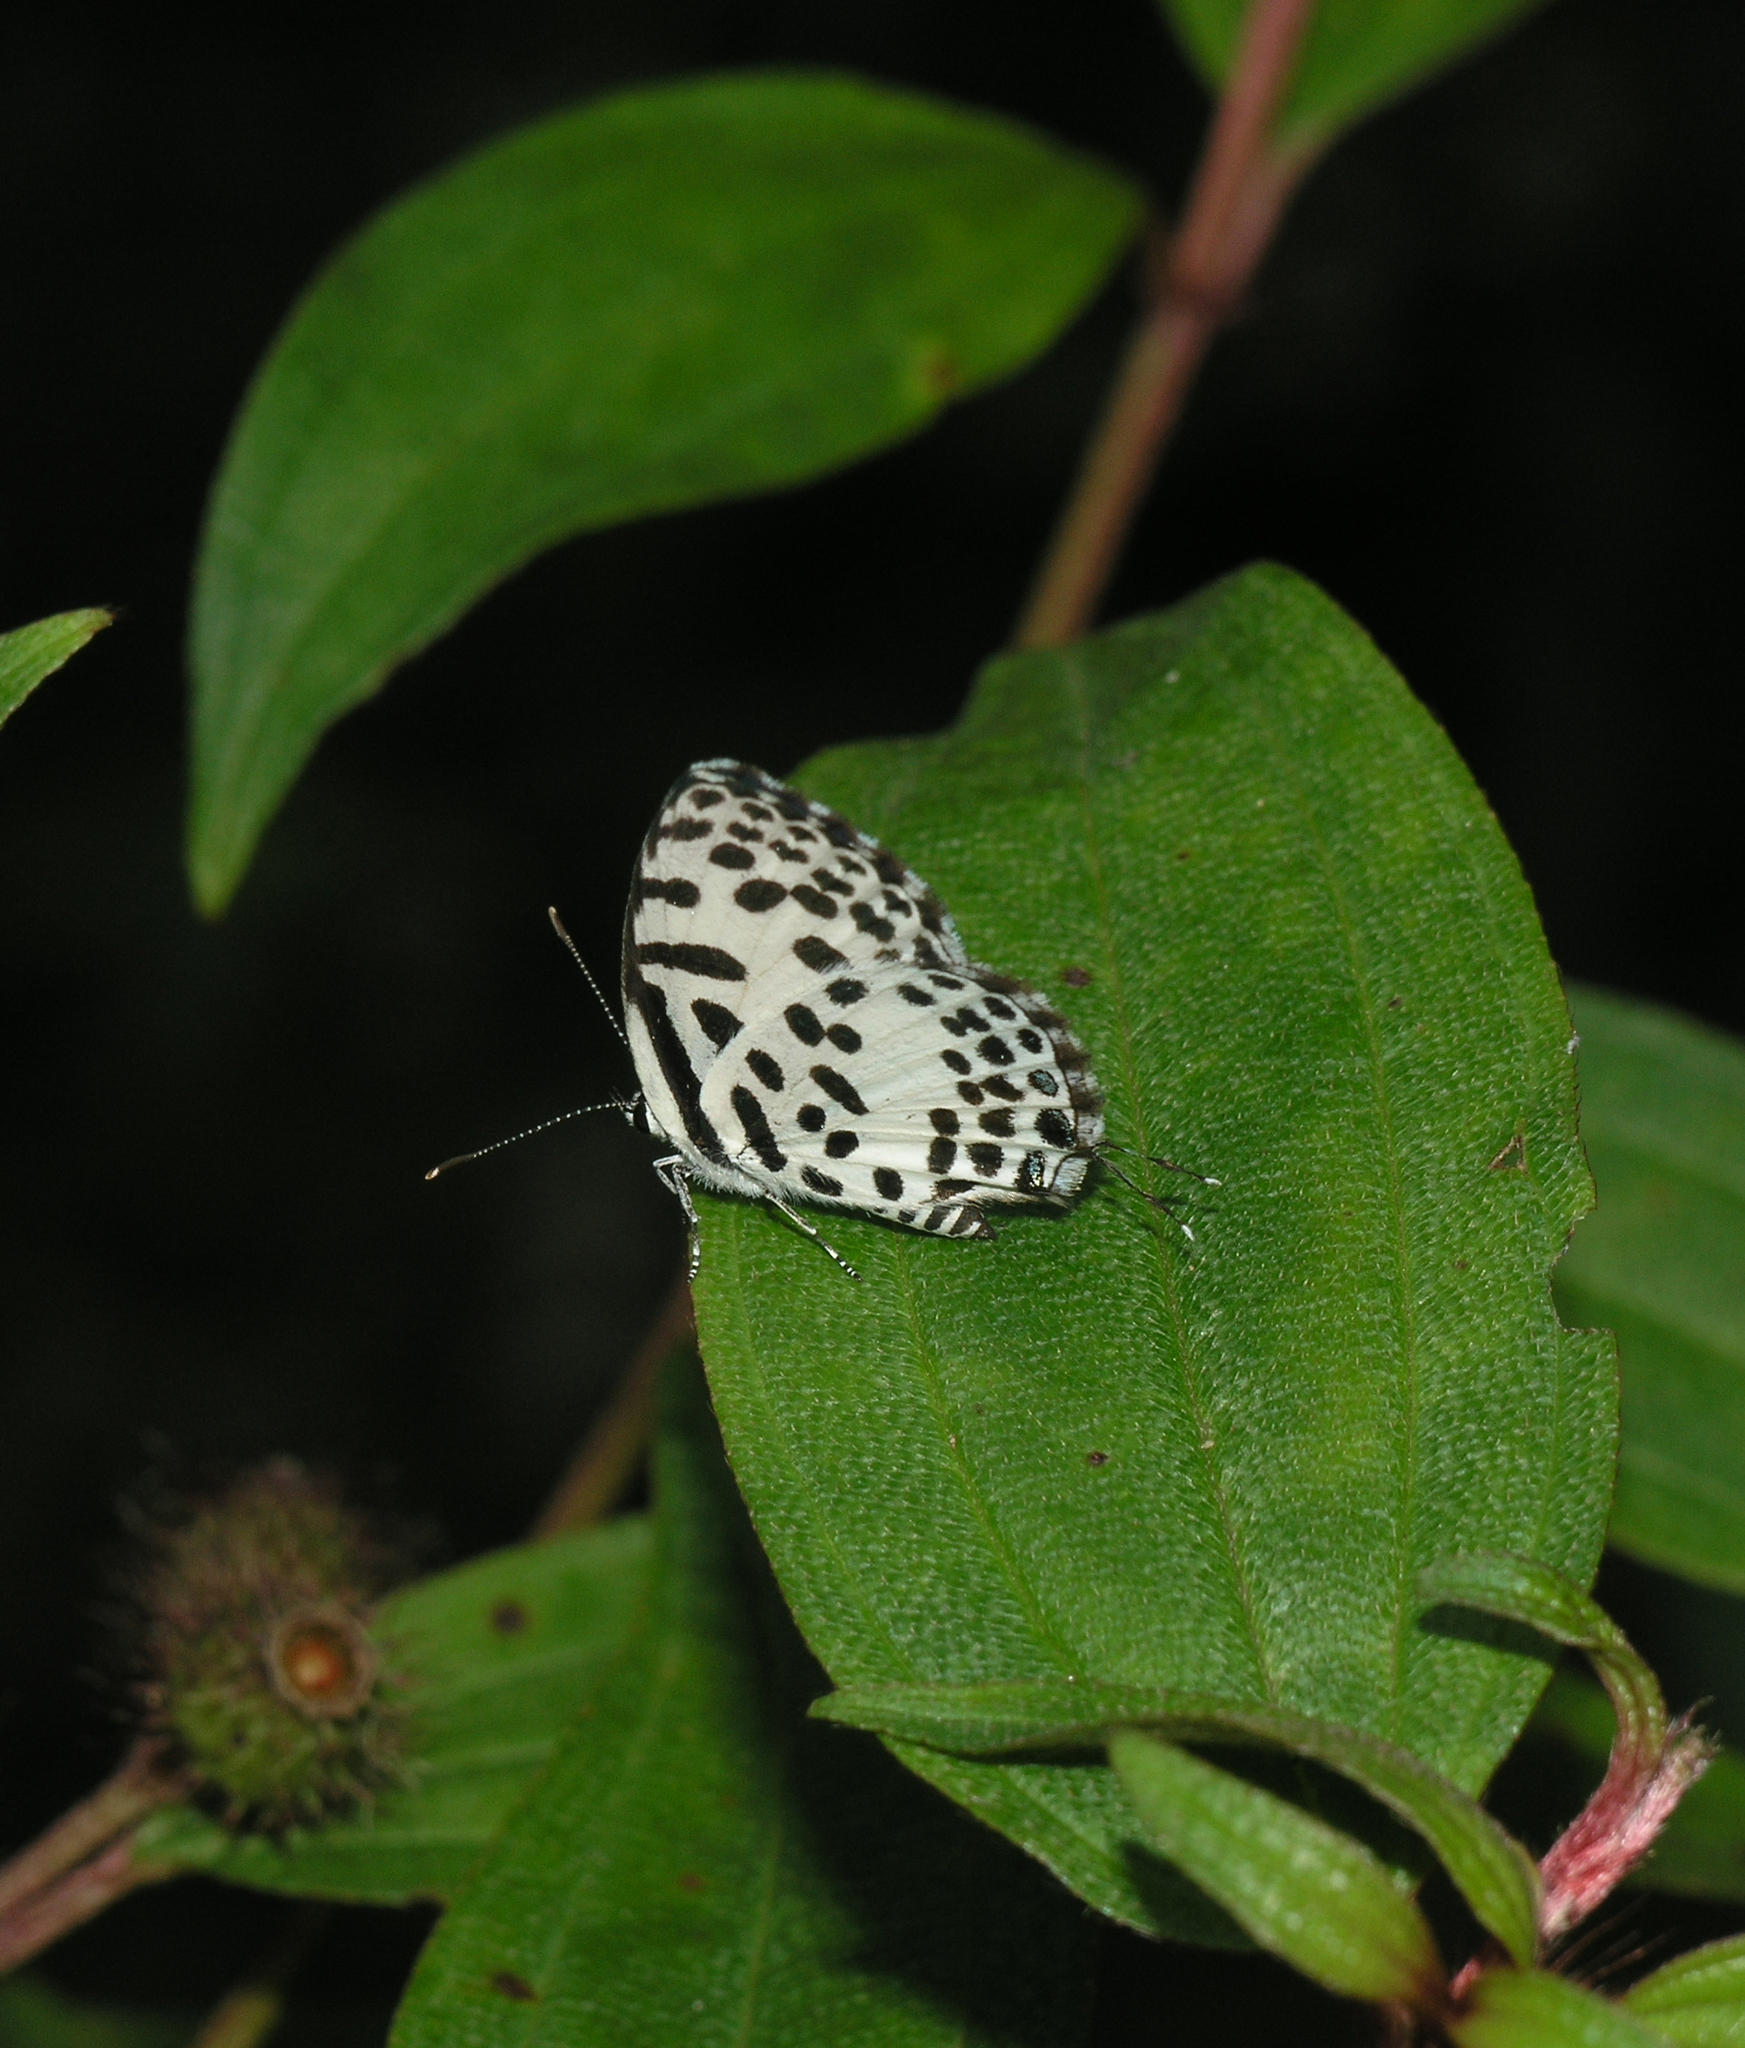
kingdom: Animalia
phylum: Arthropoda
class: Insecta
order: Lepidoptera
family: Lycaenidae
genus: Castalius
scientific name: Castalius rosimon
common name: Common pierrot
